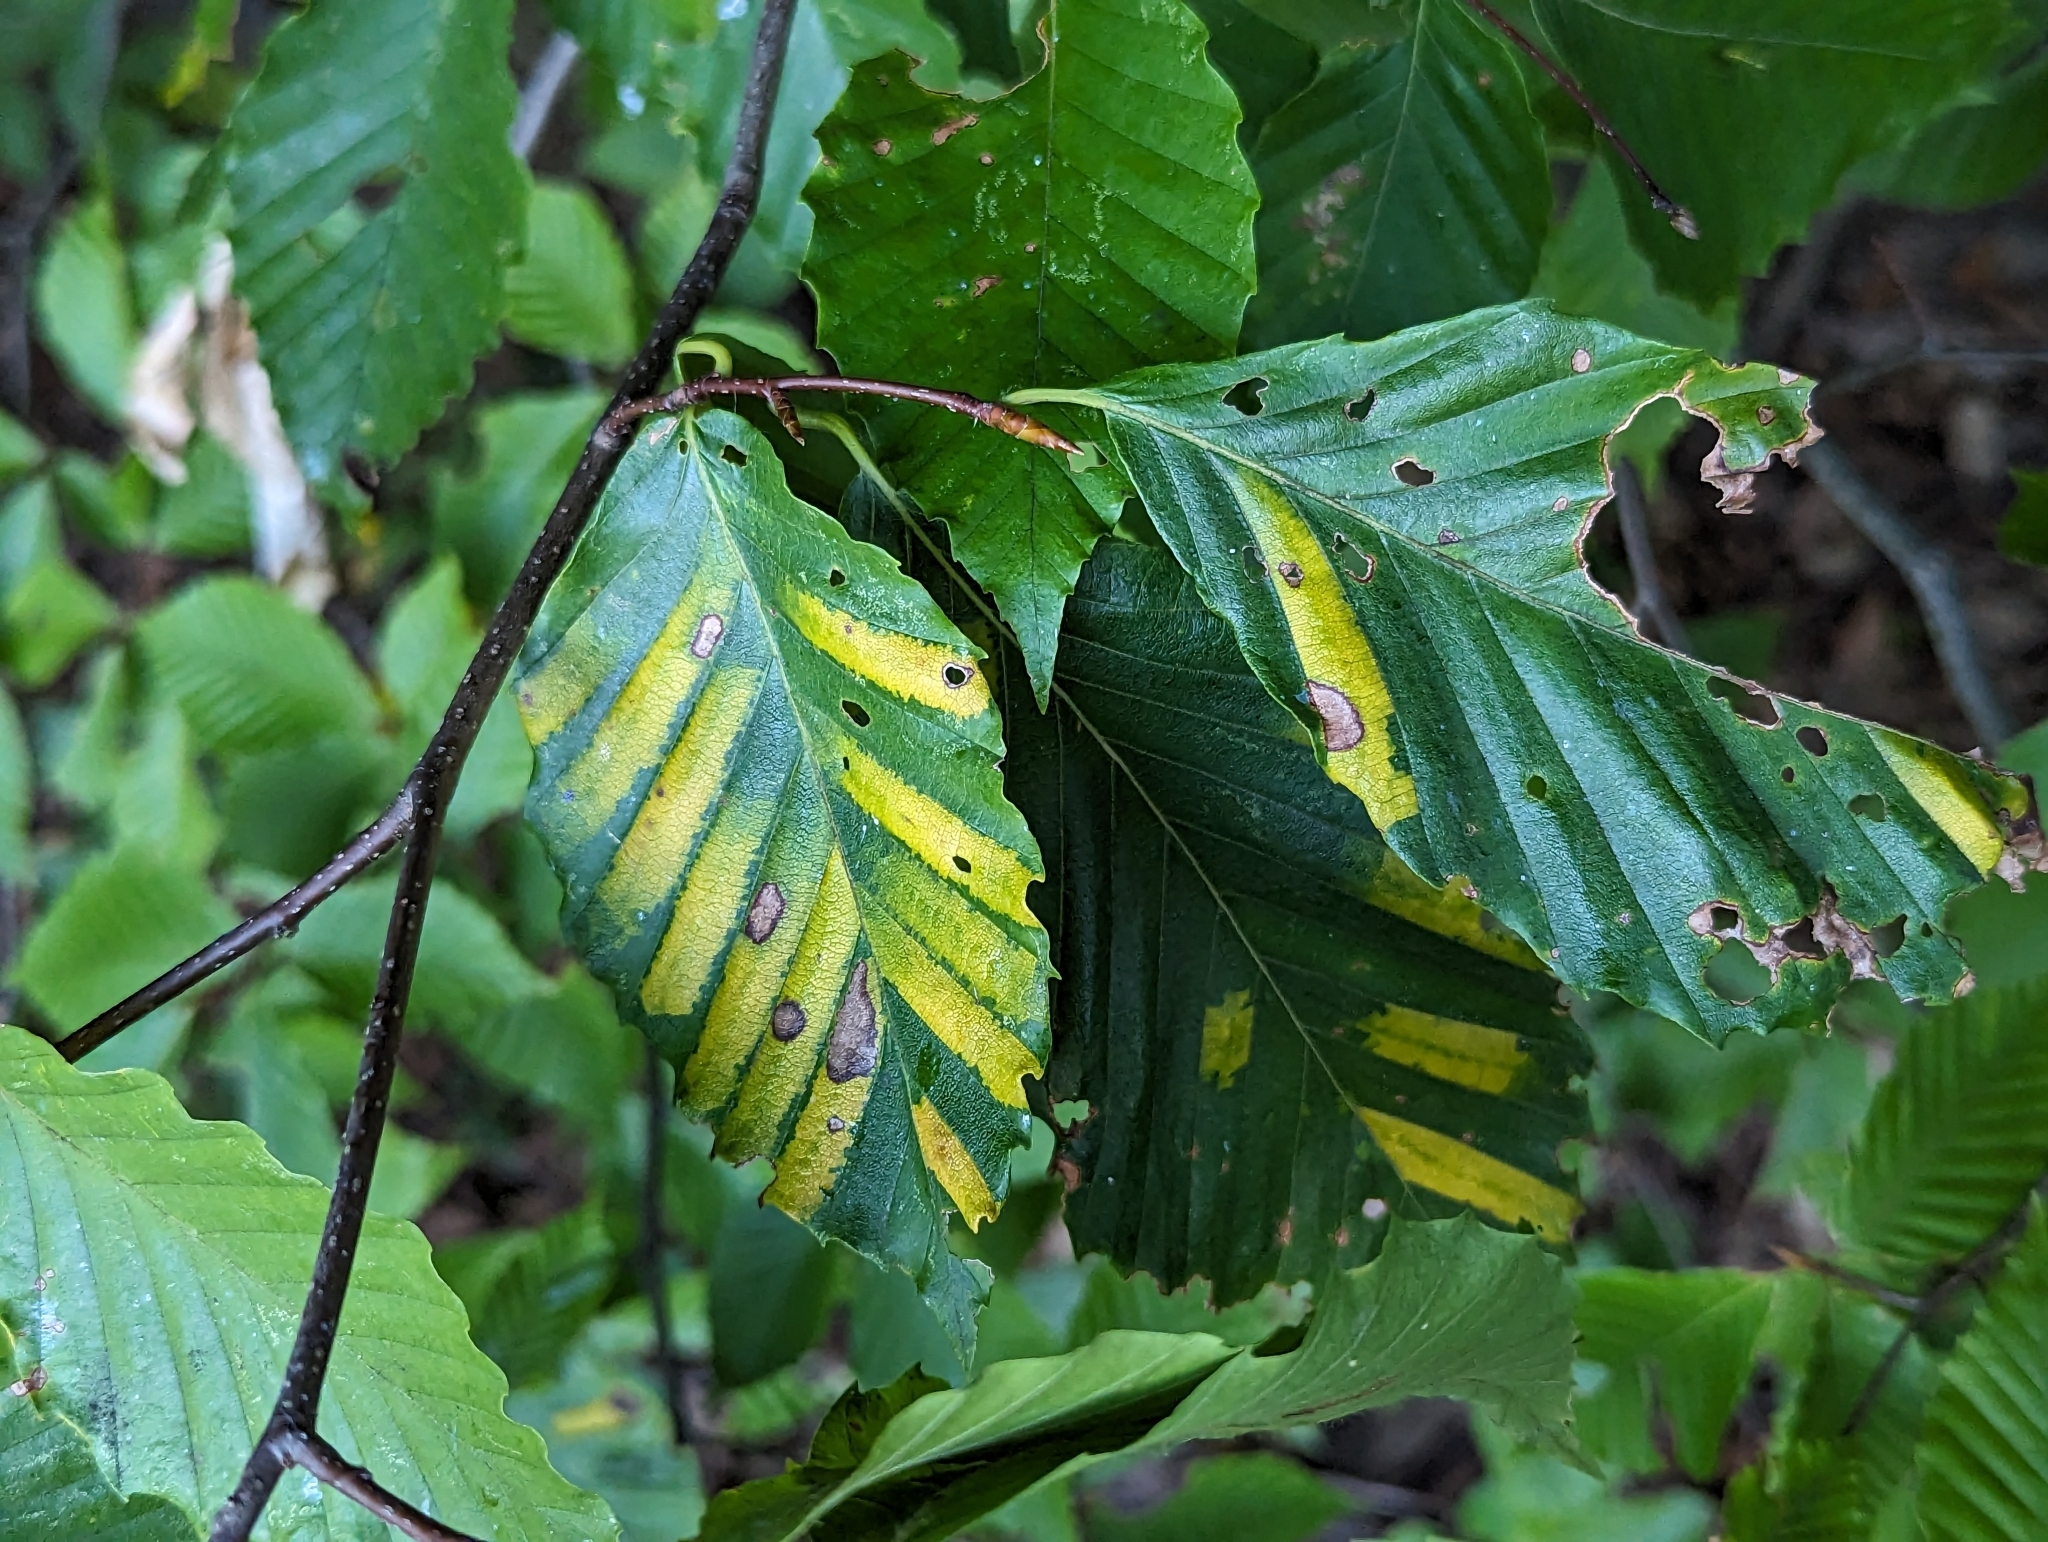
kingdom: Animalia
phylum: Nematoda
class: Chromadorea
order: Rhabditida
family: Anguinidae
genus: Litylenchus
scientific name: Litylenchus crenatae
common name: Beech leaf disease
